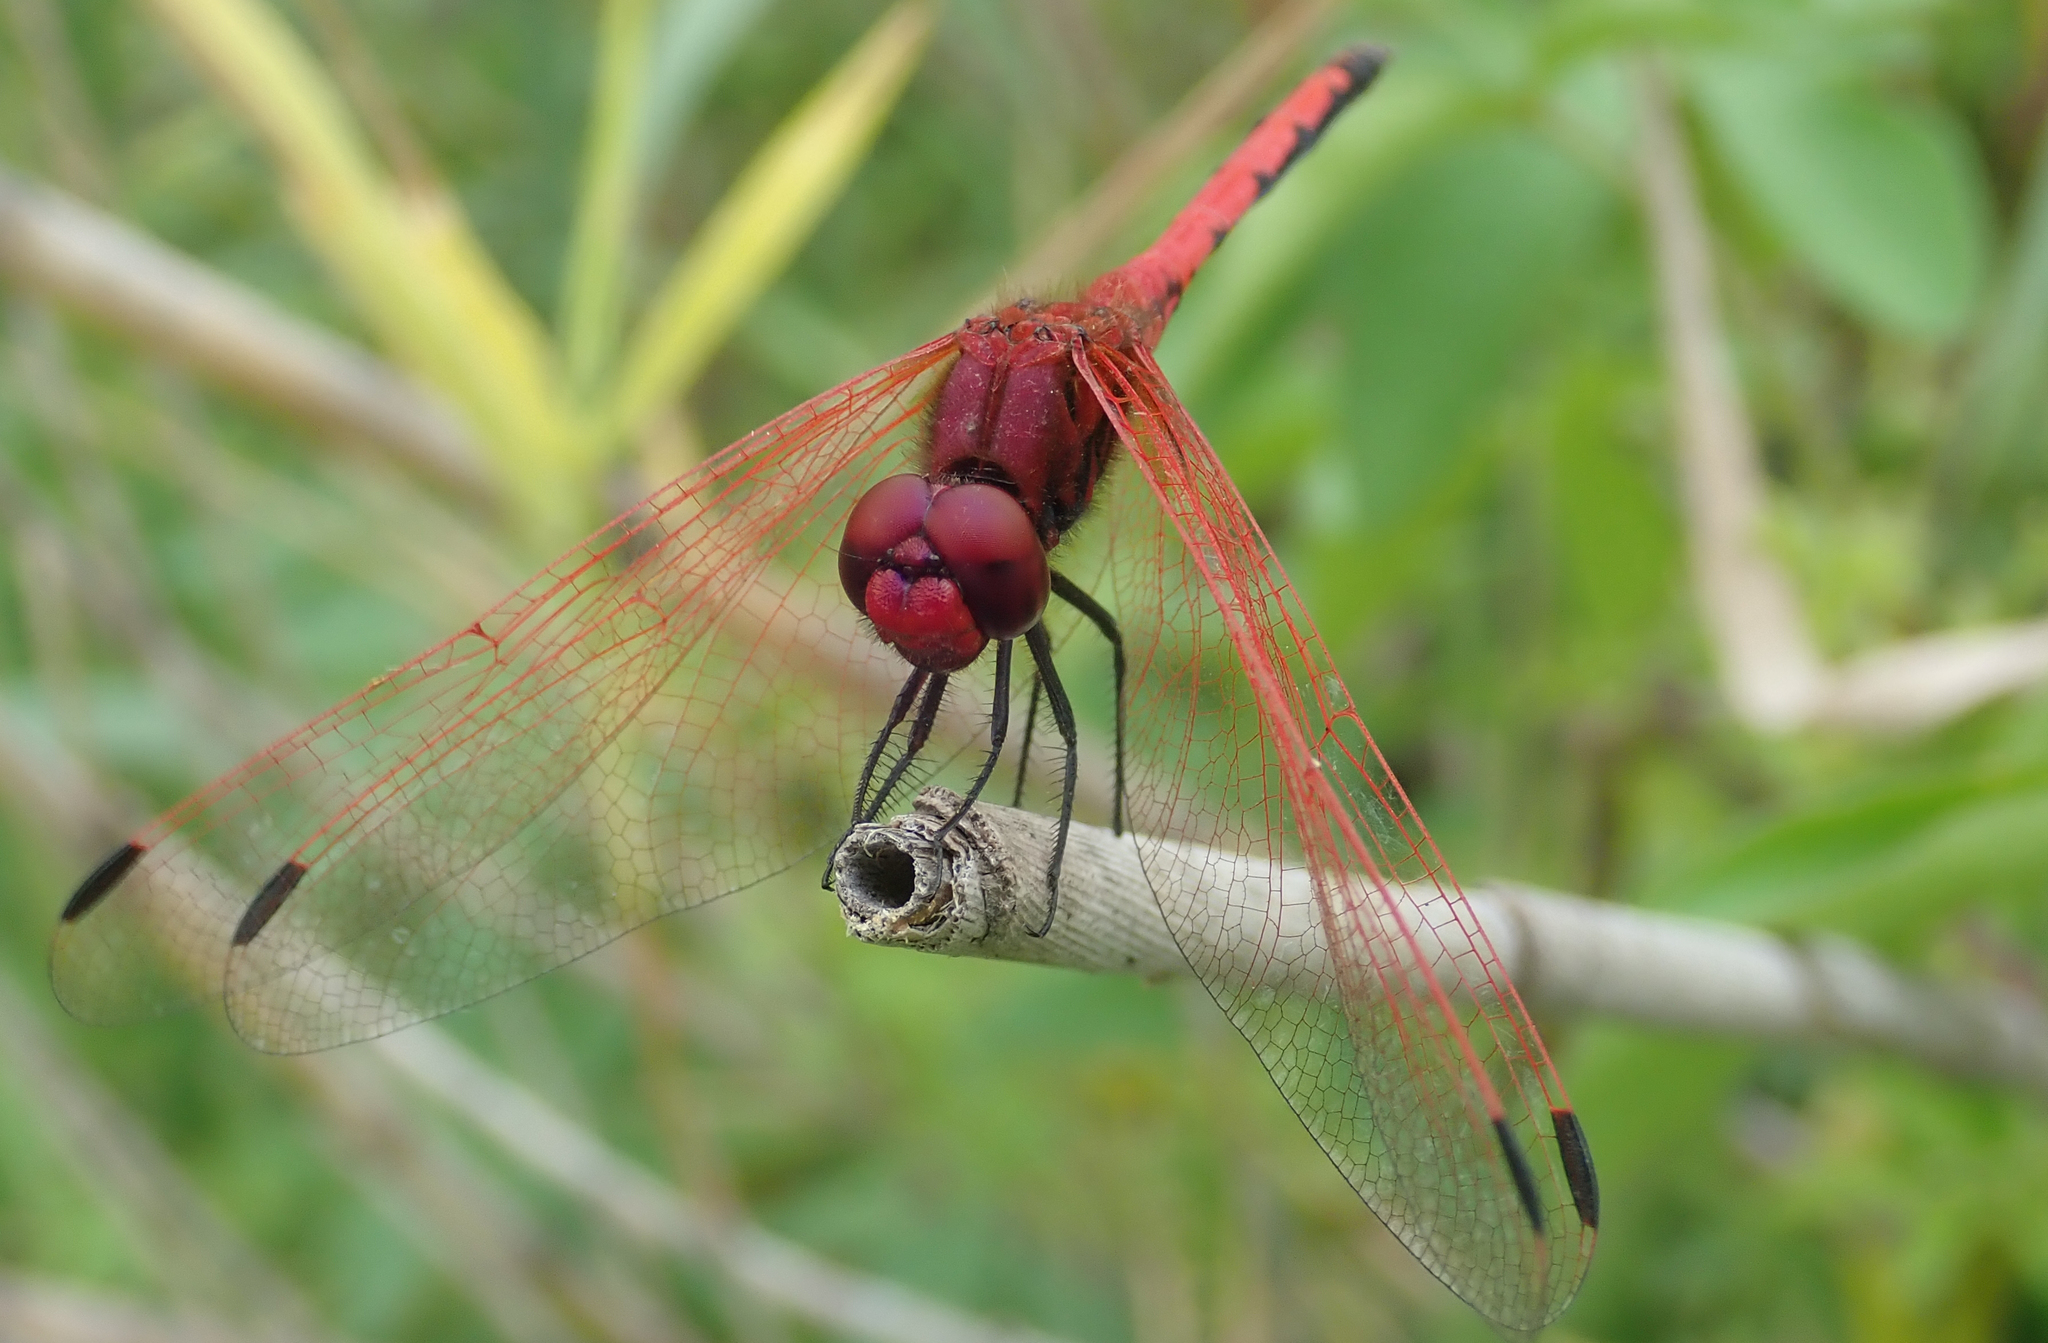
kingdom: Animalia
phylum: Arthropoda
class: Insecta
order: Odonata
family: Libellulidae
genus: Trithemis
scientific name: Trithemis arteriosa
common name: Red-veined dropwing
